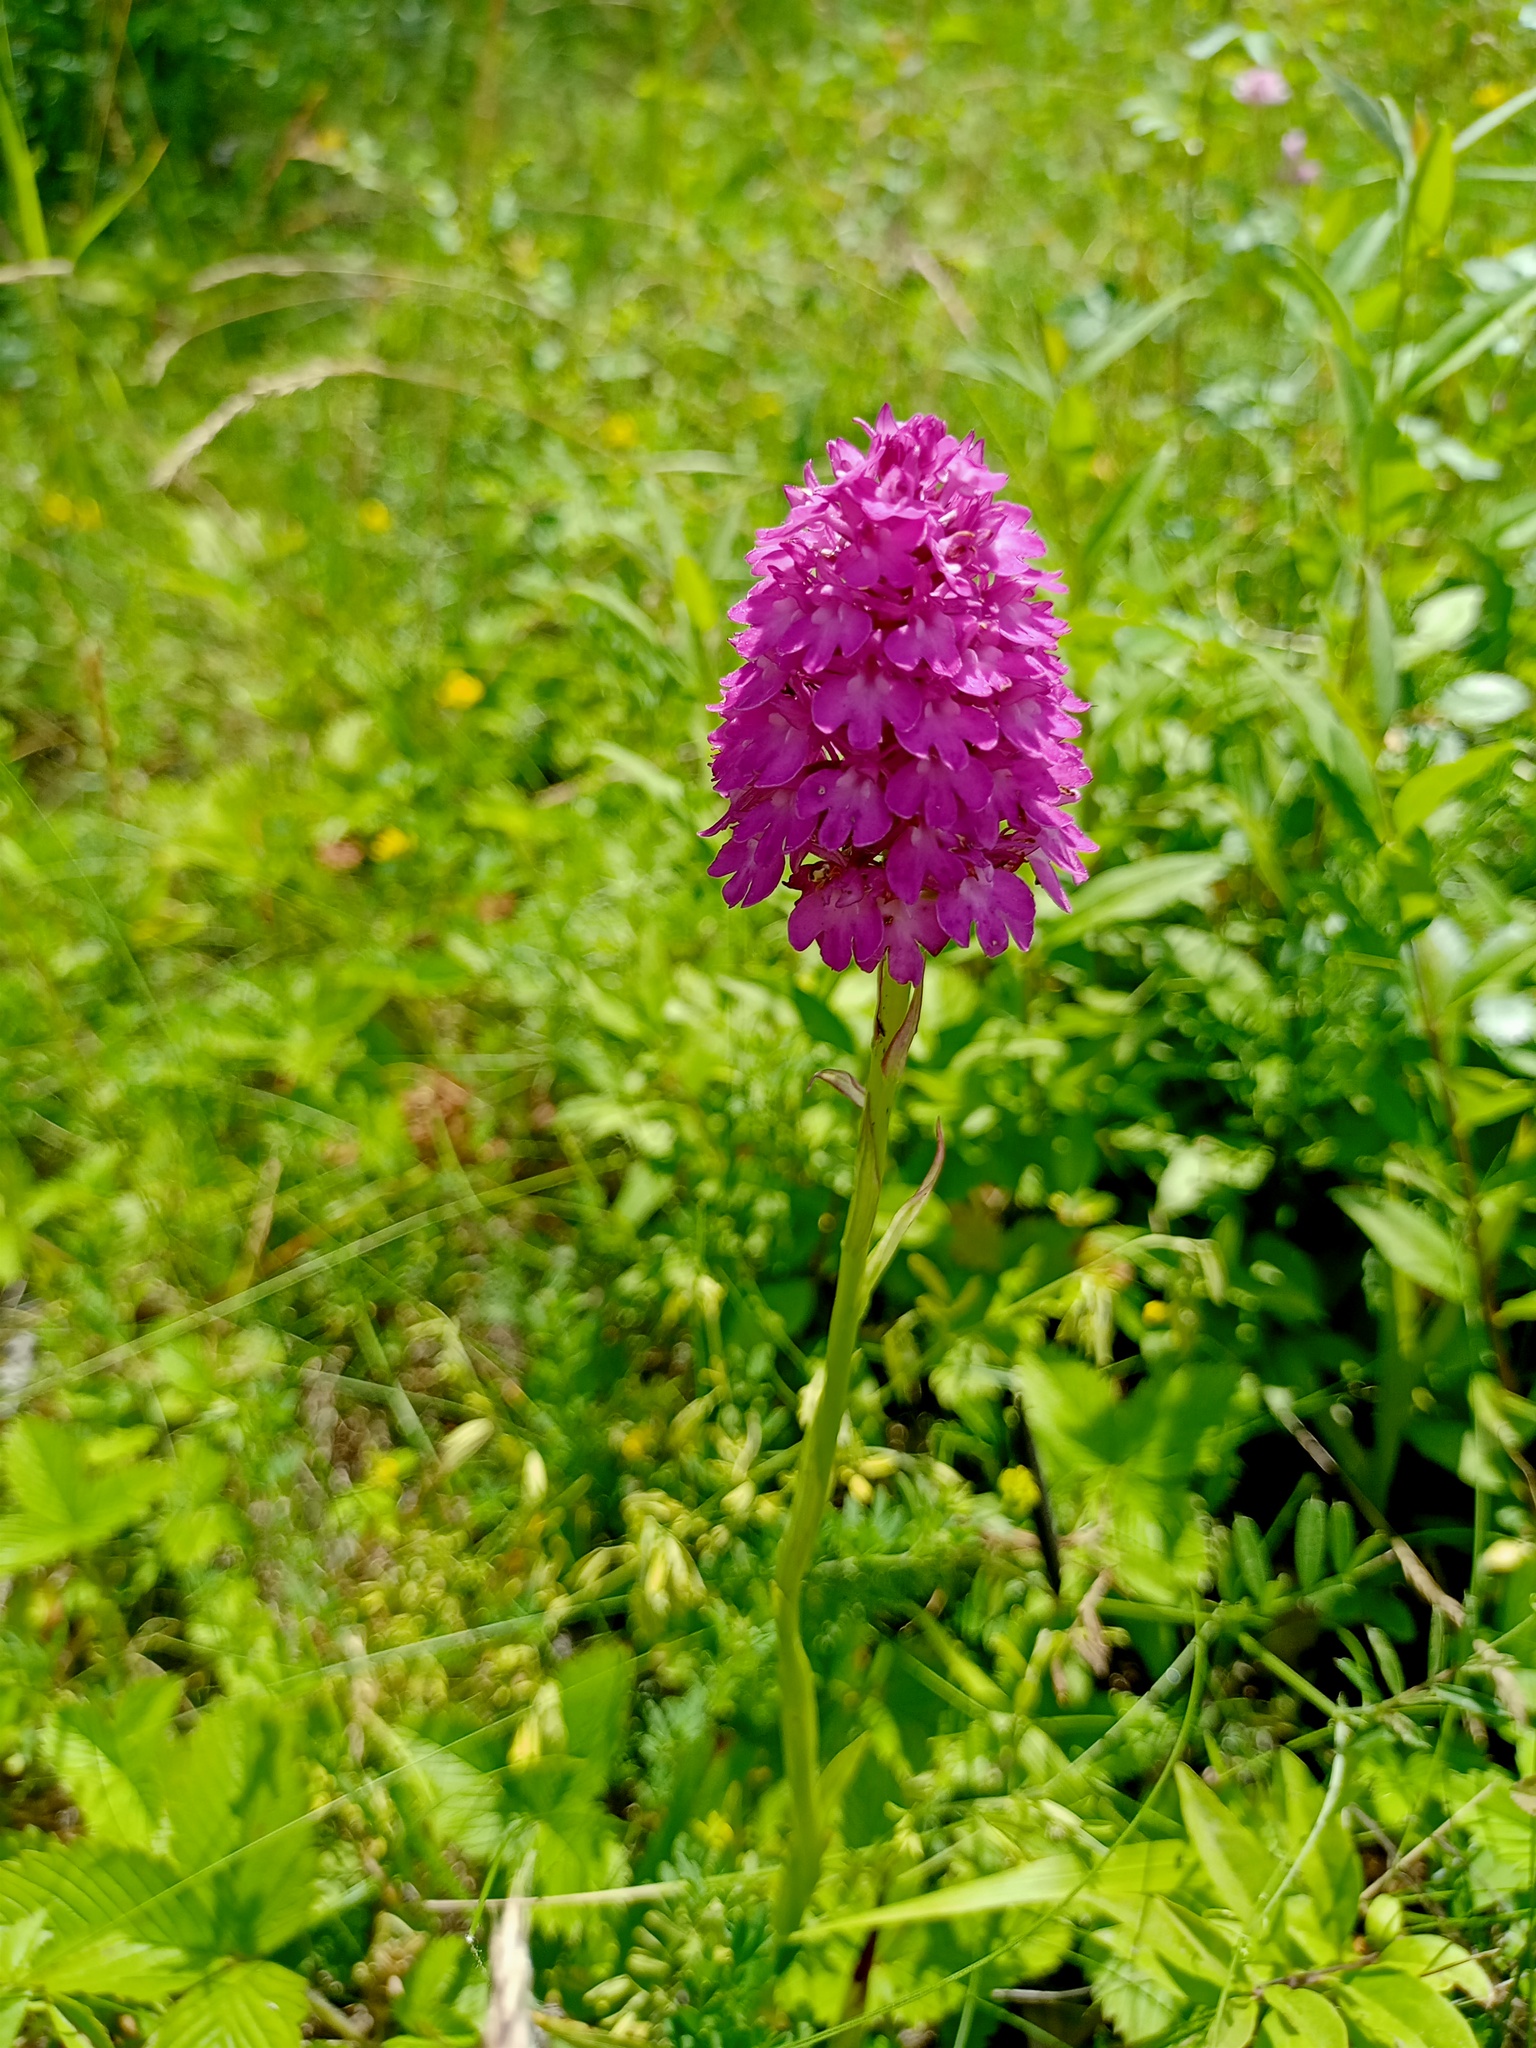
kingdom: Plantae
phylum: Tracheophyta
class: Liliopsida
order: Asparagales
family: Orchidaceae
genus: Anacamptis
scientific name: Anacamptis pyramidalis
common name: Pyramidal orchid
